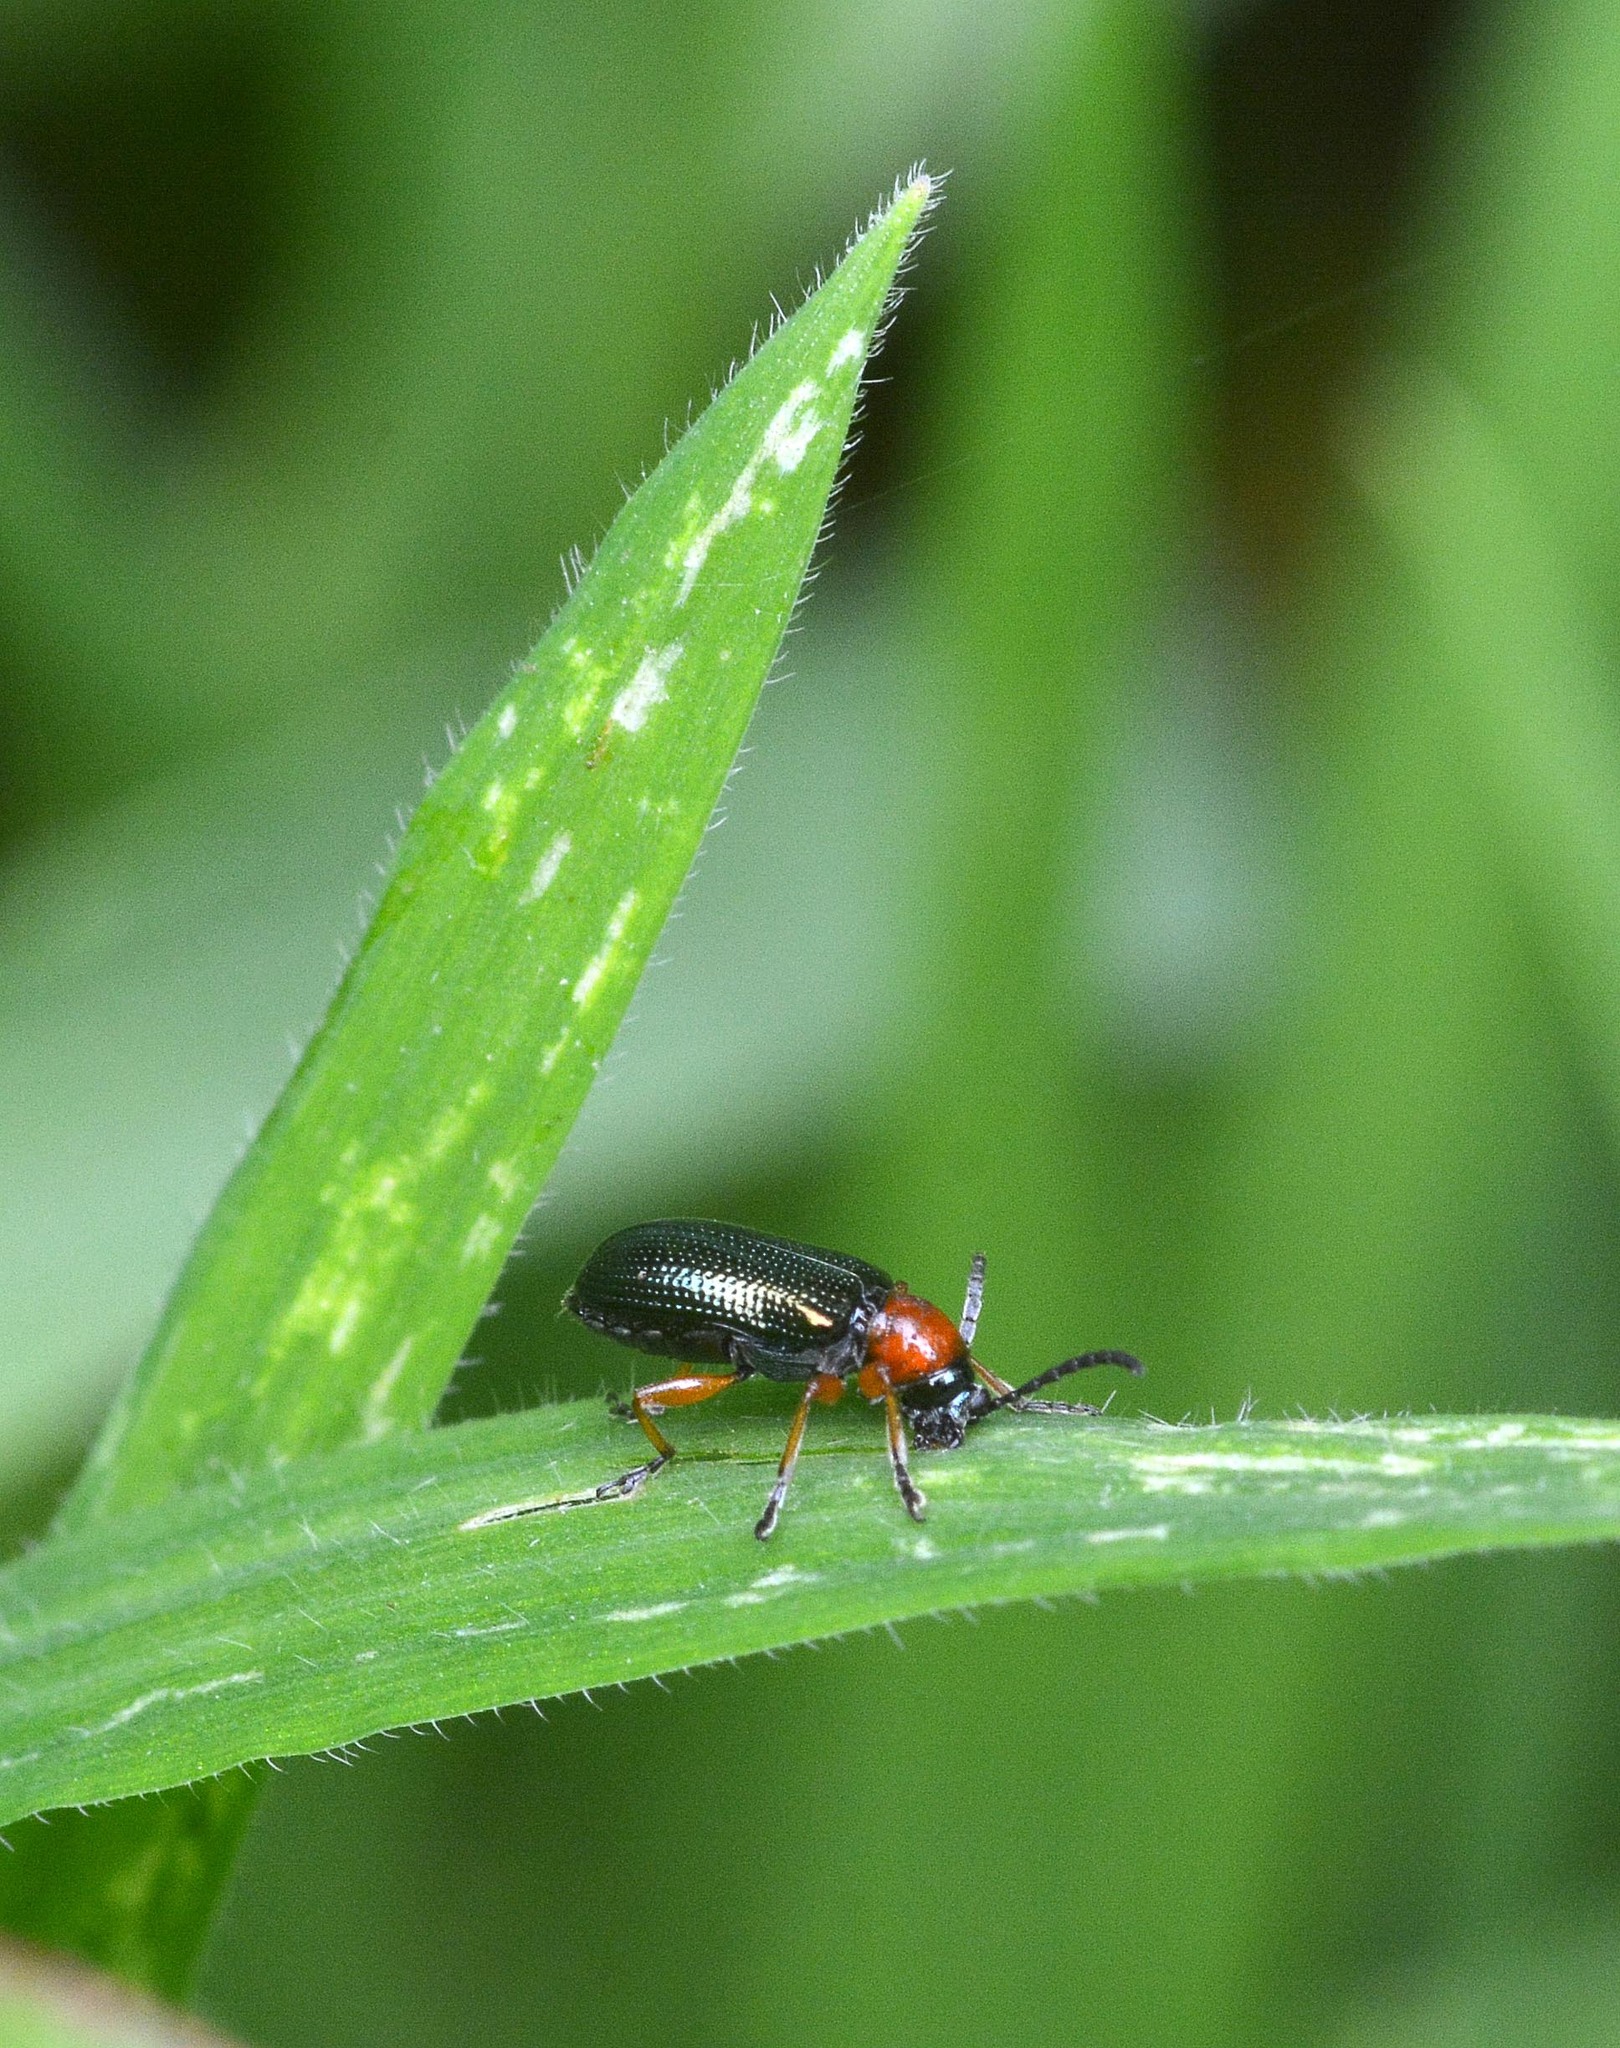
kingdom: Animalia
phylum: Arthropoda
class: Insecta
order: Coleoptera
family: Chrysomelidae
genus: Oulema
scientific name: Oulema
